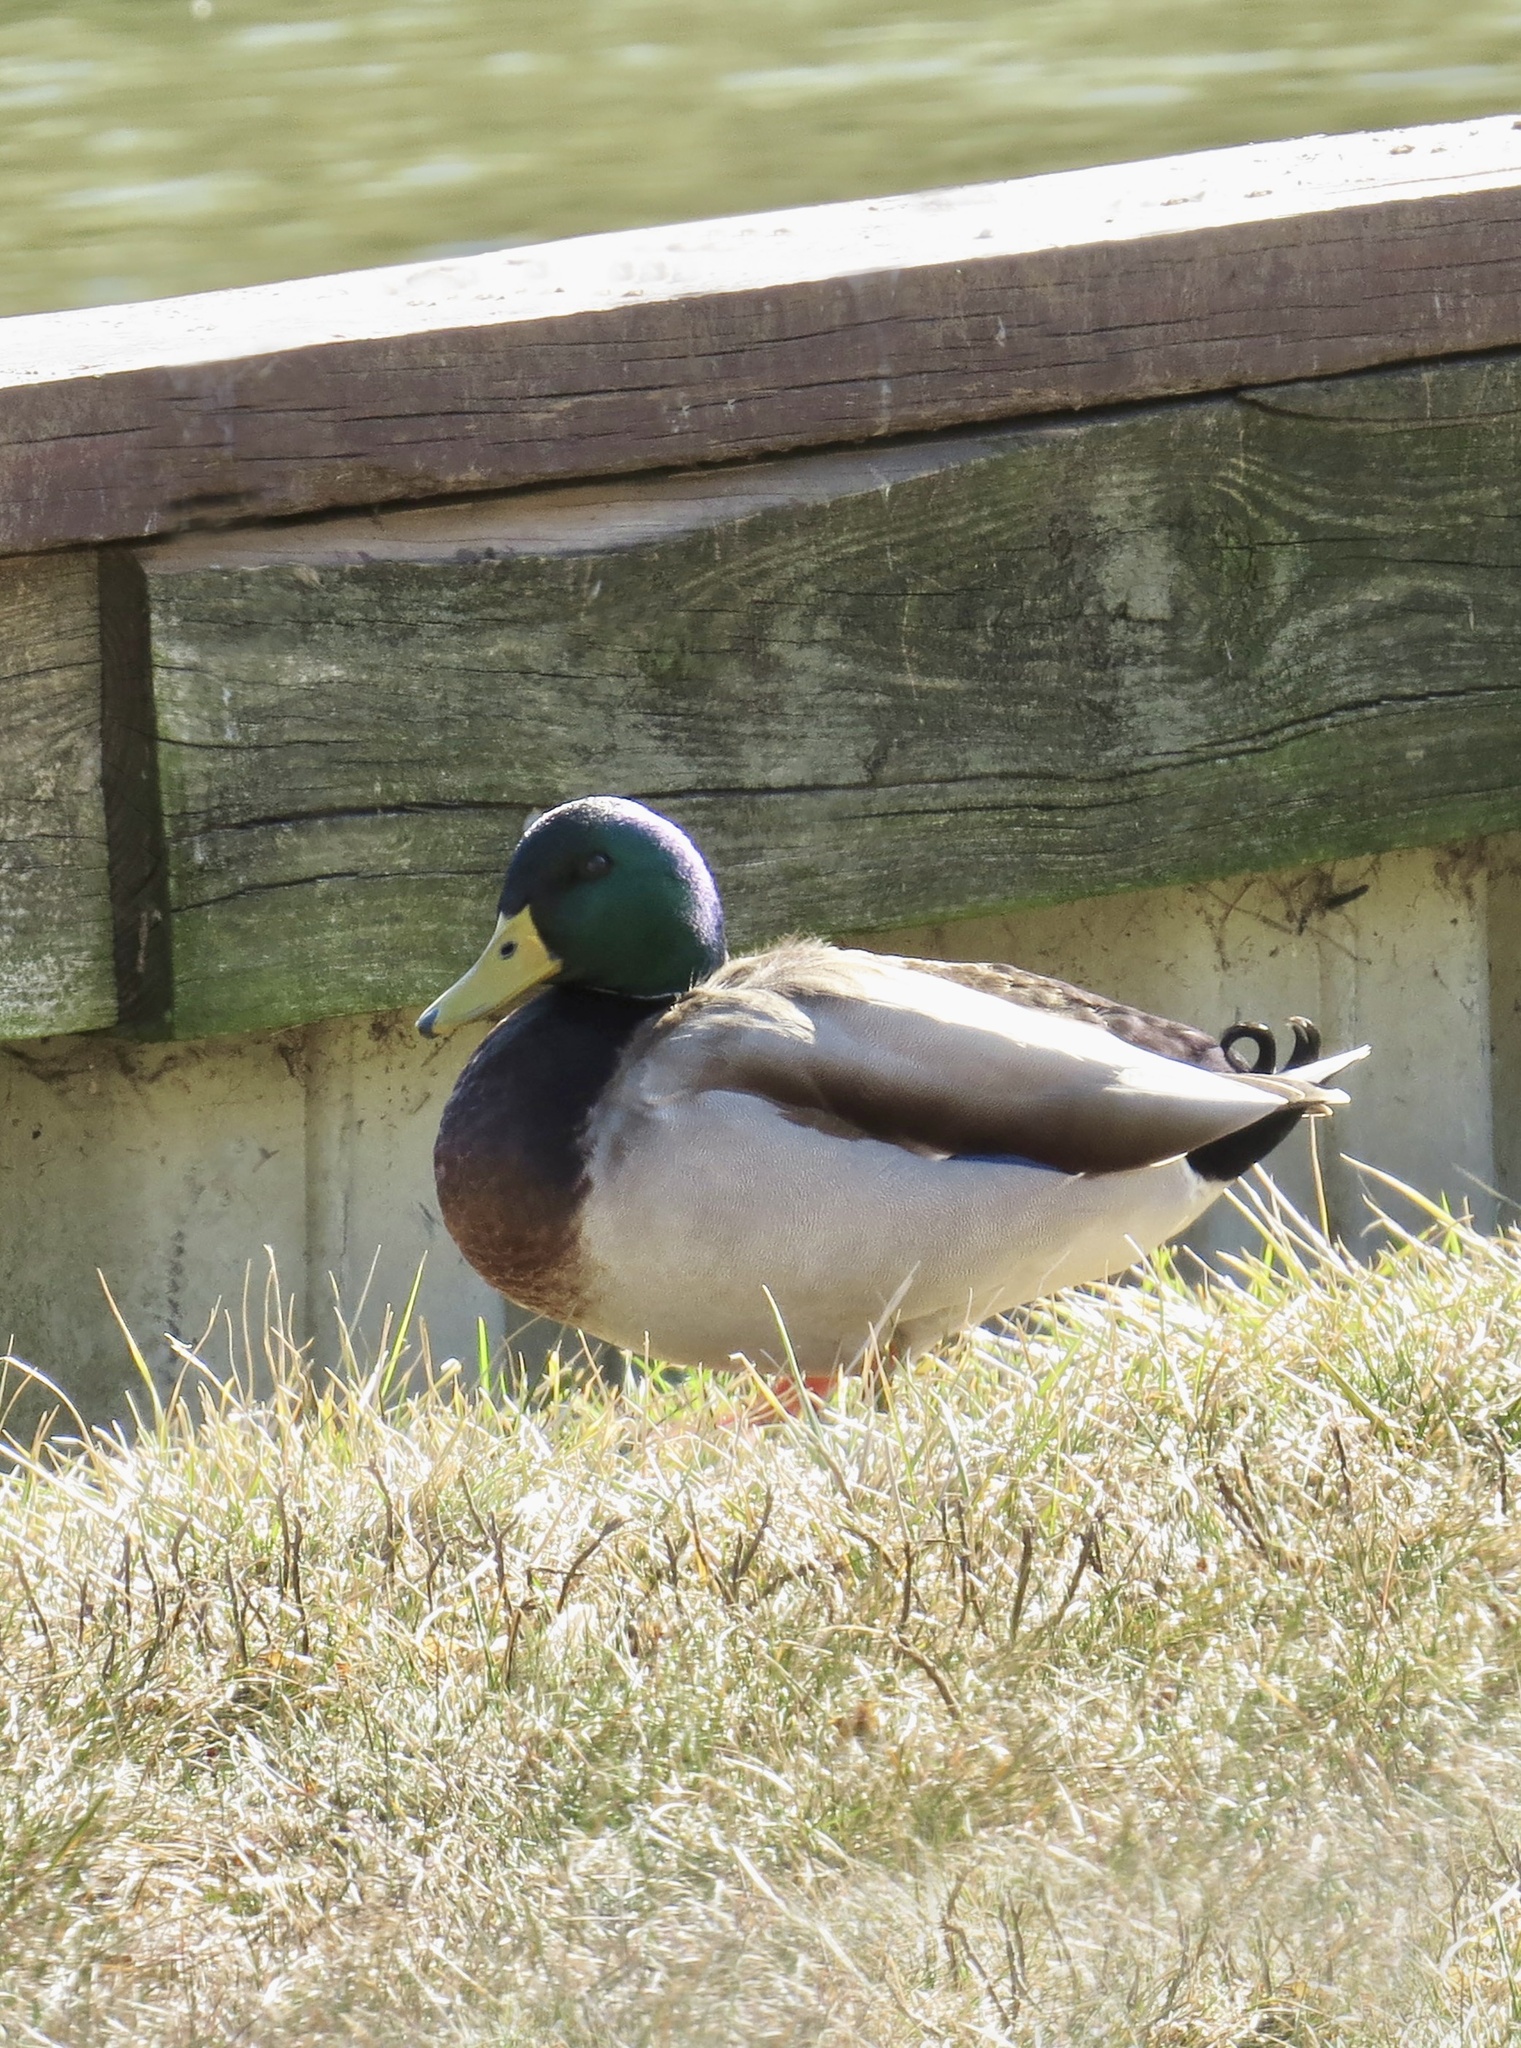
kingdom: Animalia
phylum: Chordata
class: Aves
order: Anseriformes
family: Anatidae
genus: Anas
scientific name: Anas platyrhynchos
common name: Mallard
